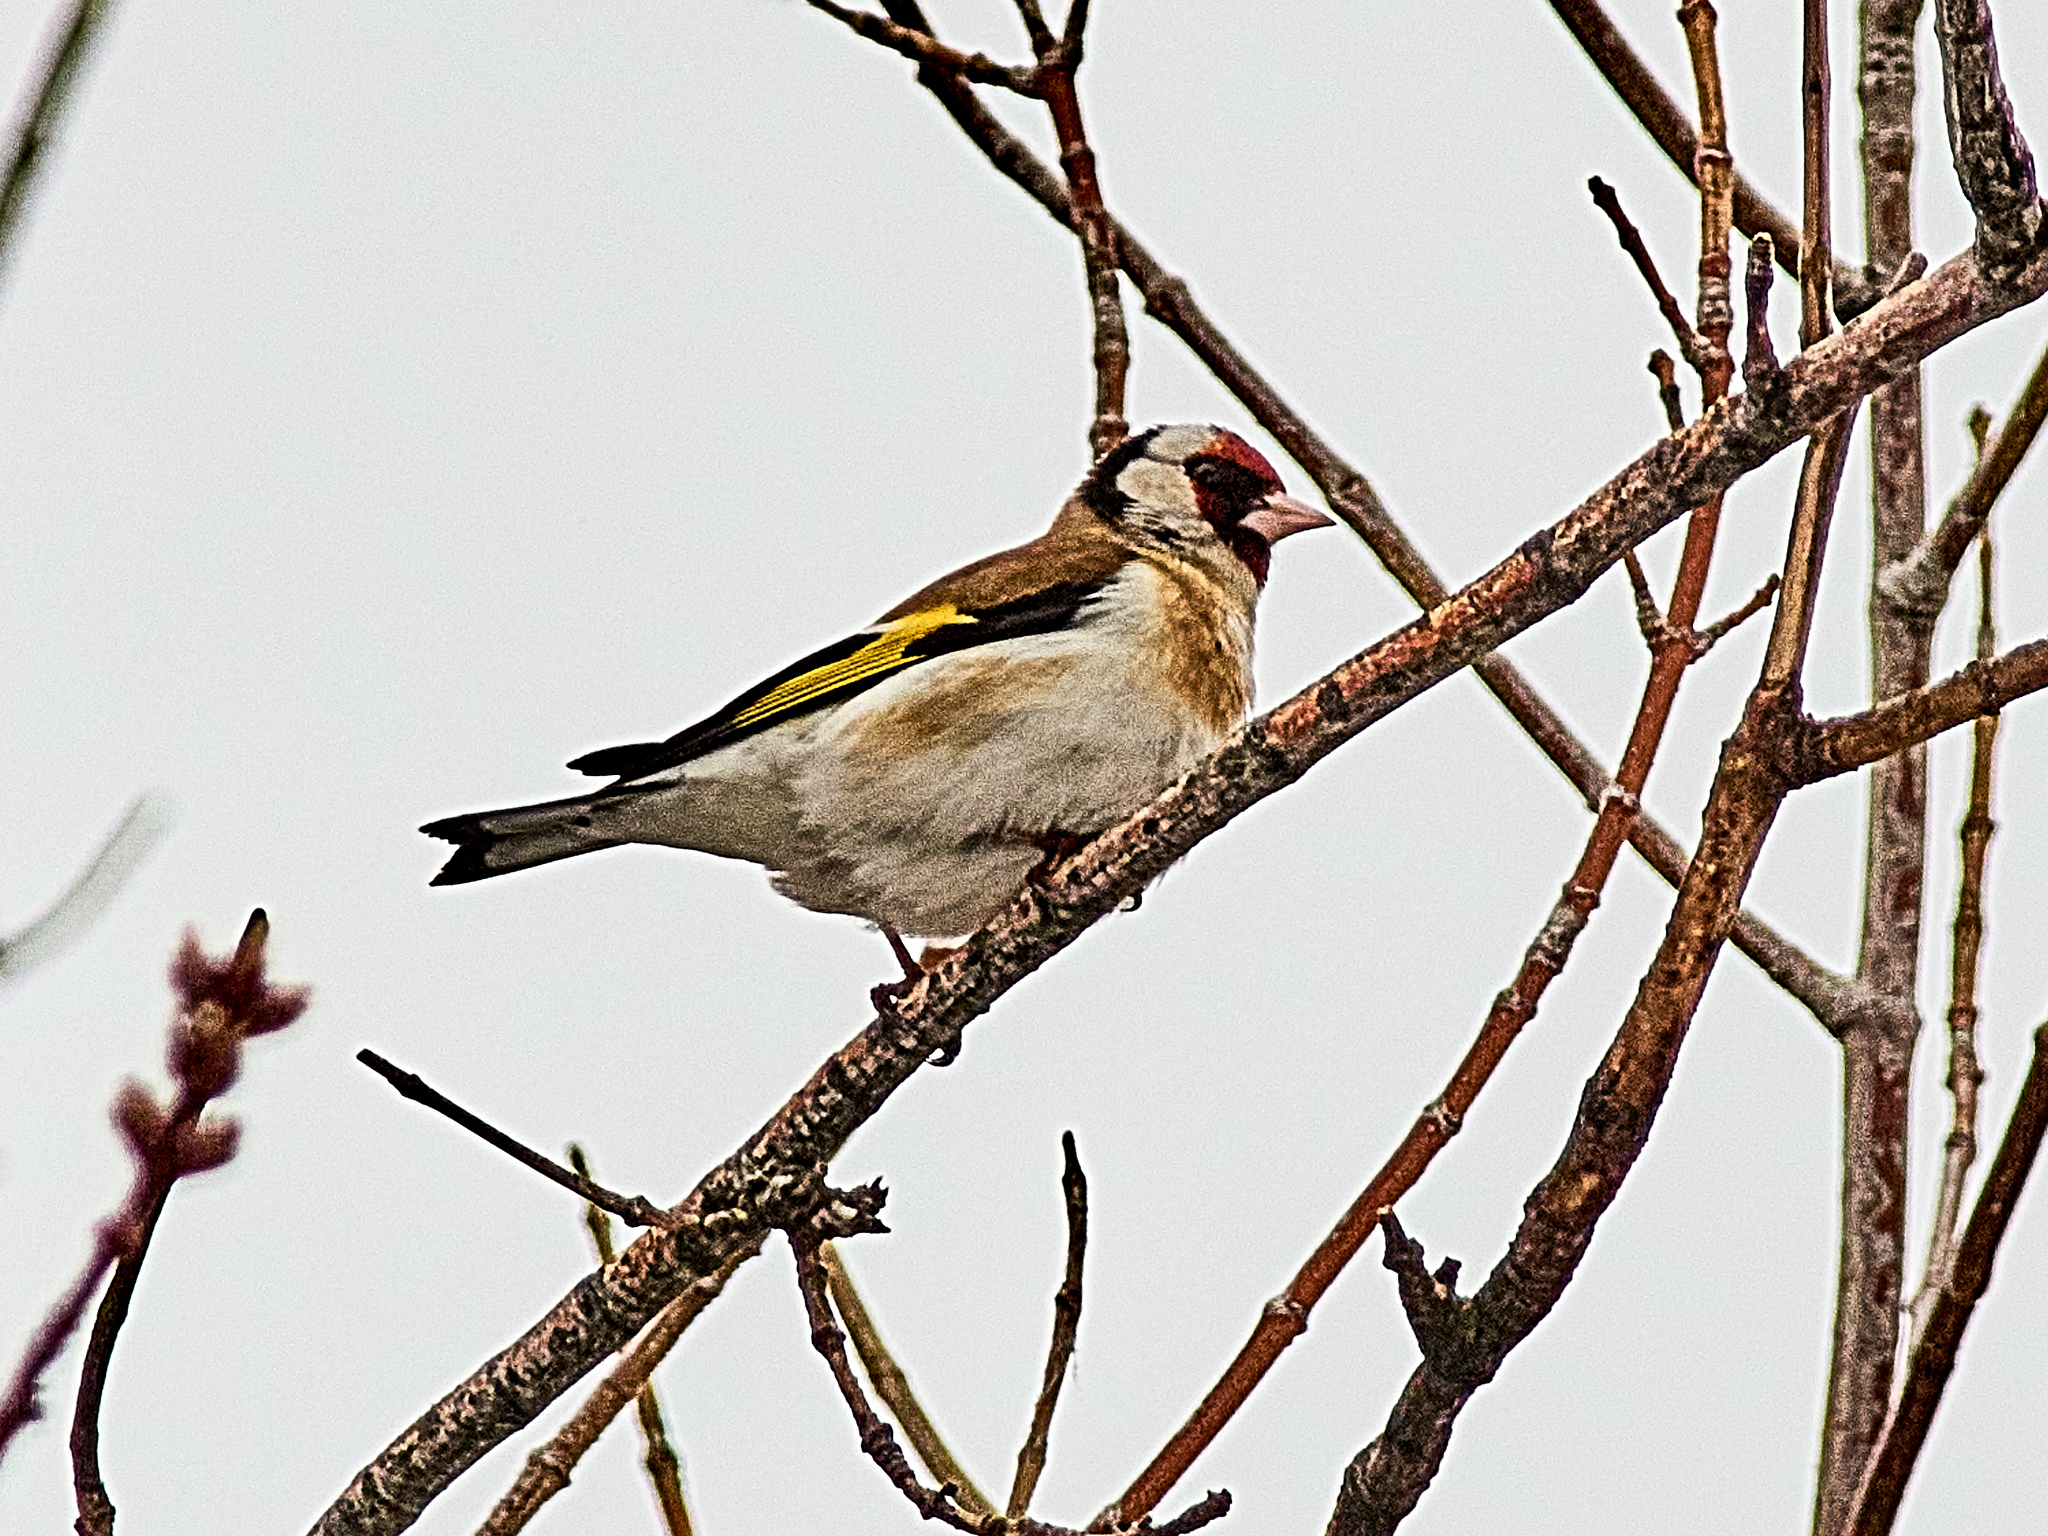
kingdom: Animalia
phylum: Chordata
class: Aves
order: Passeriformes
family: Fringillidae
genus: Carduelis
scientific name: Carduelis carduelis
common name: European goldfinch
